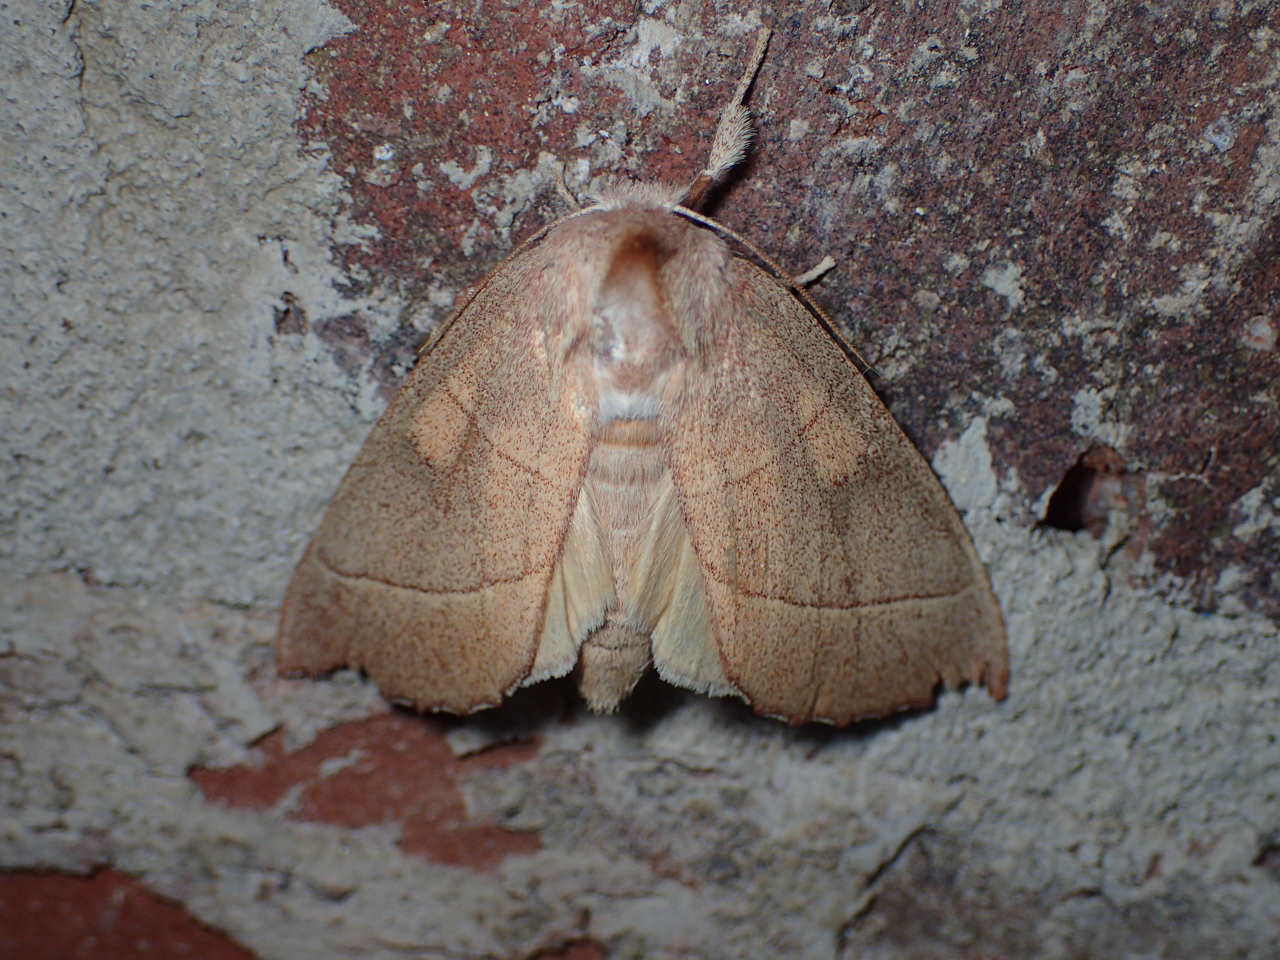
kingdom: Animalia
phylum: Arthropoda
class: Insecta
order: Lepidoptera
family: Notodontidae
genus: Nadata
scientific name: Nadata gibbosa
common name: White-dotted prominent
